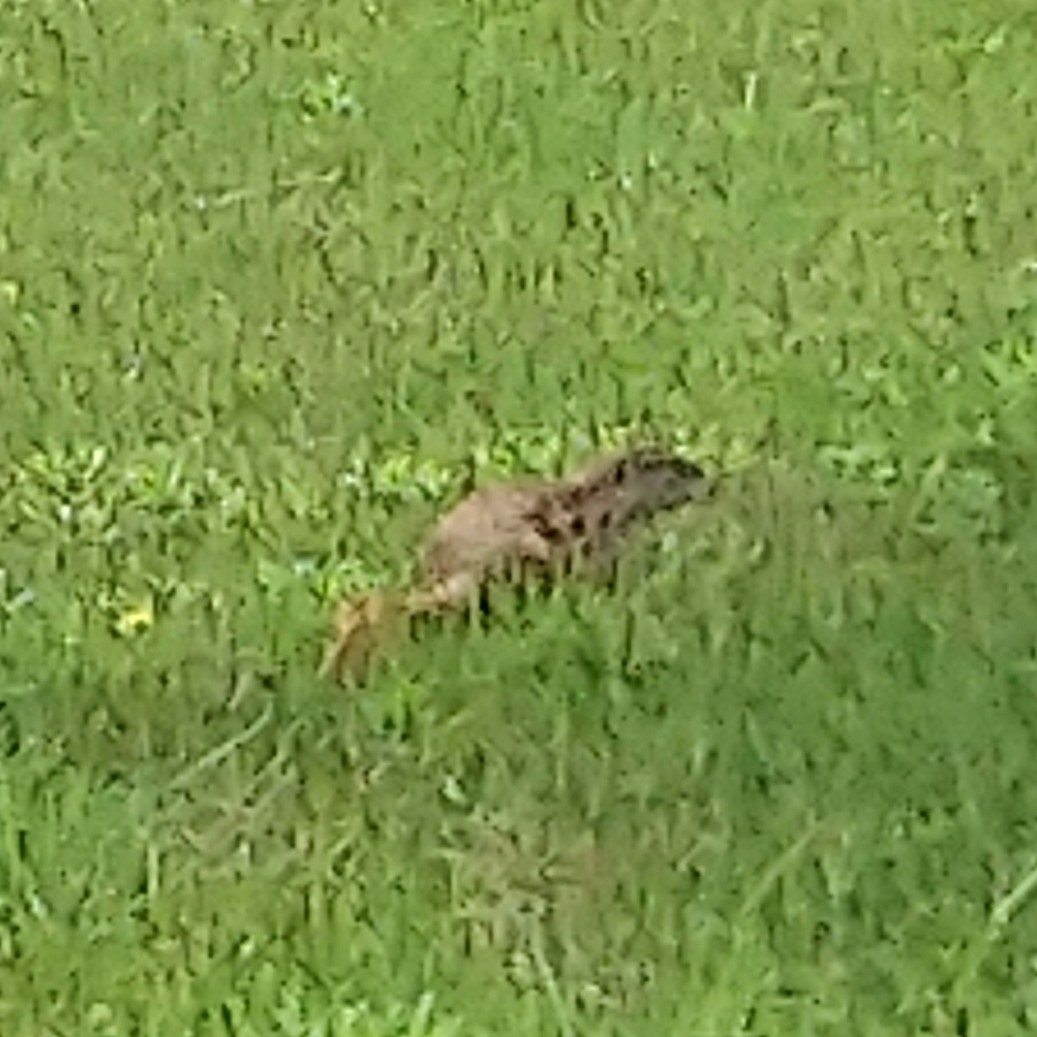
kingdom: Animalia
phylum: Chordata
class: Mammalia
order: Rodentia
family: Sciuridae
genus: Xerus
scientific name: Xerus inauris
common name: South african ground squirrel
